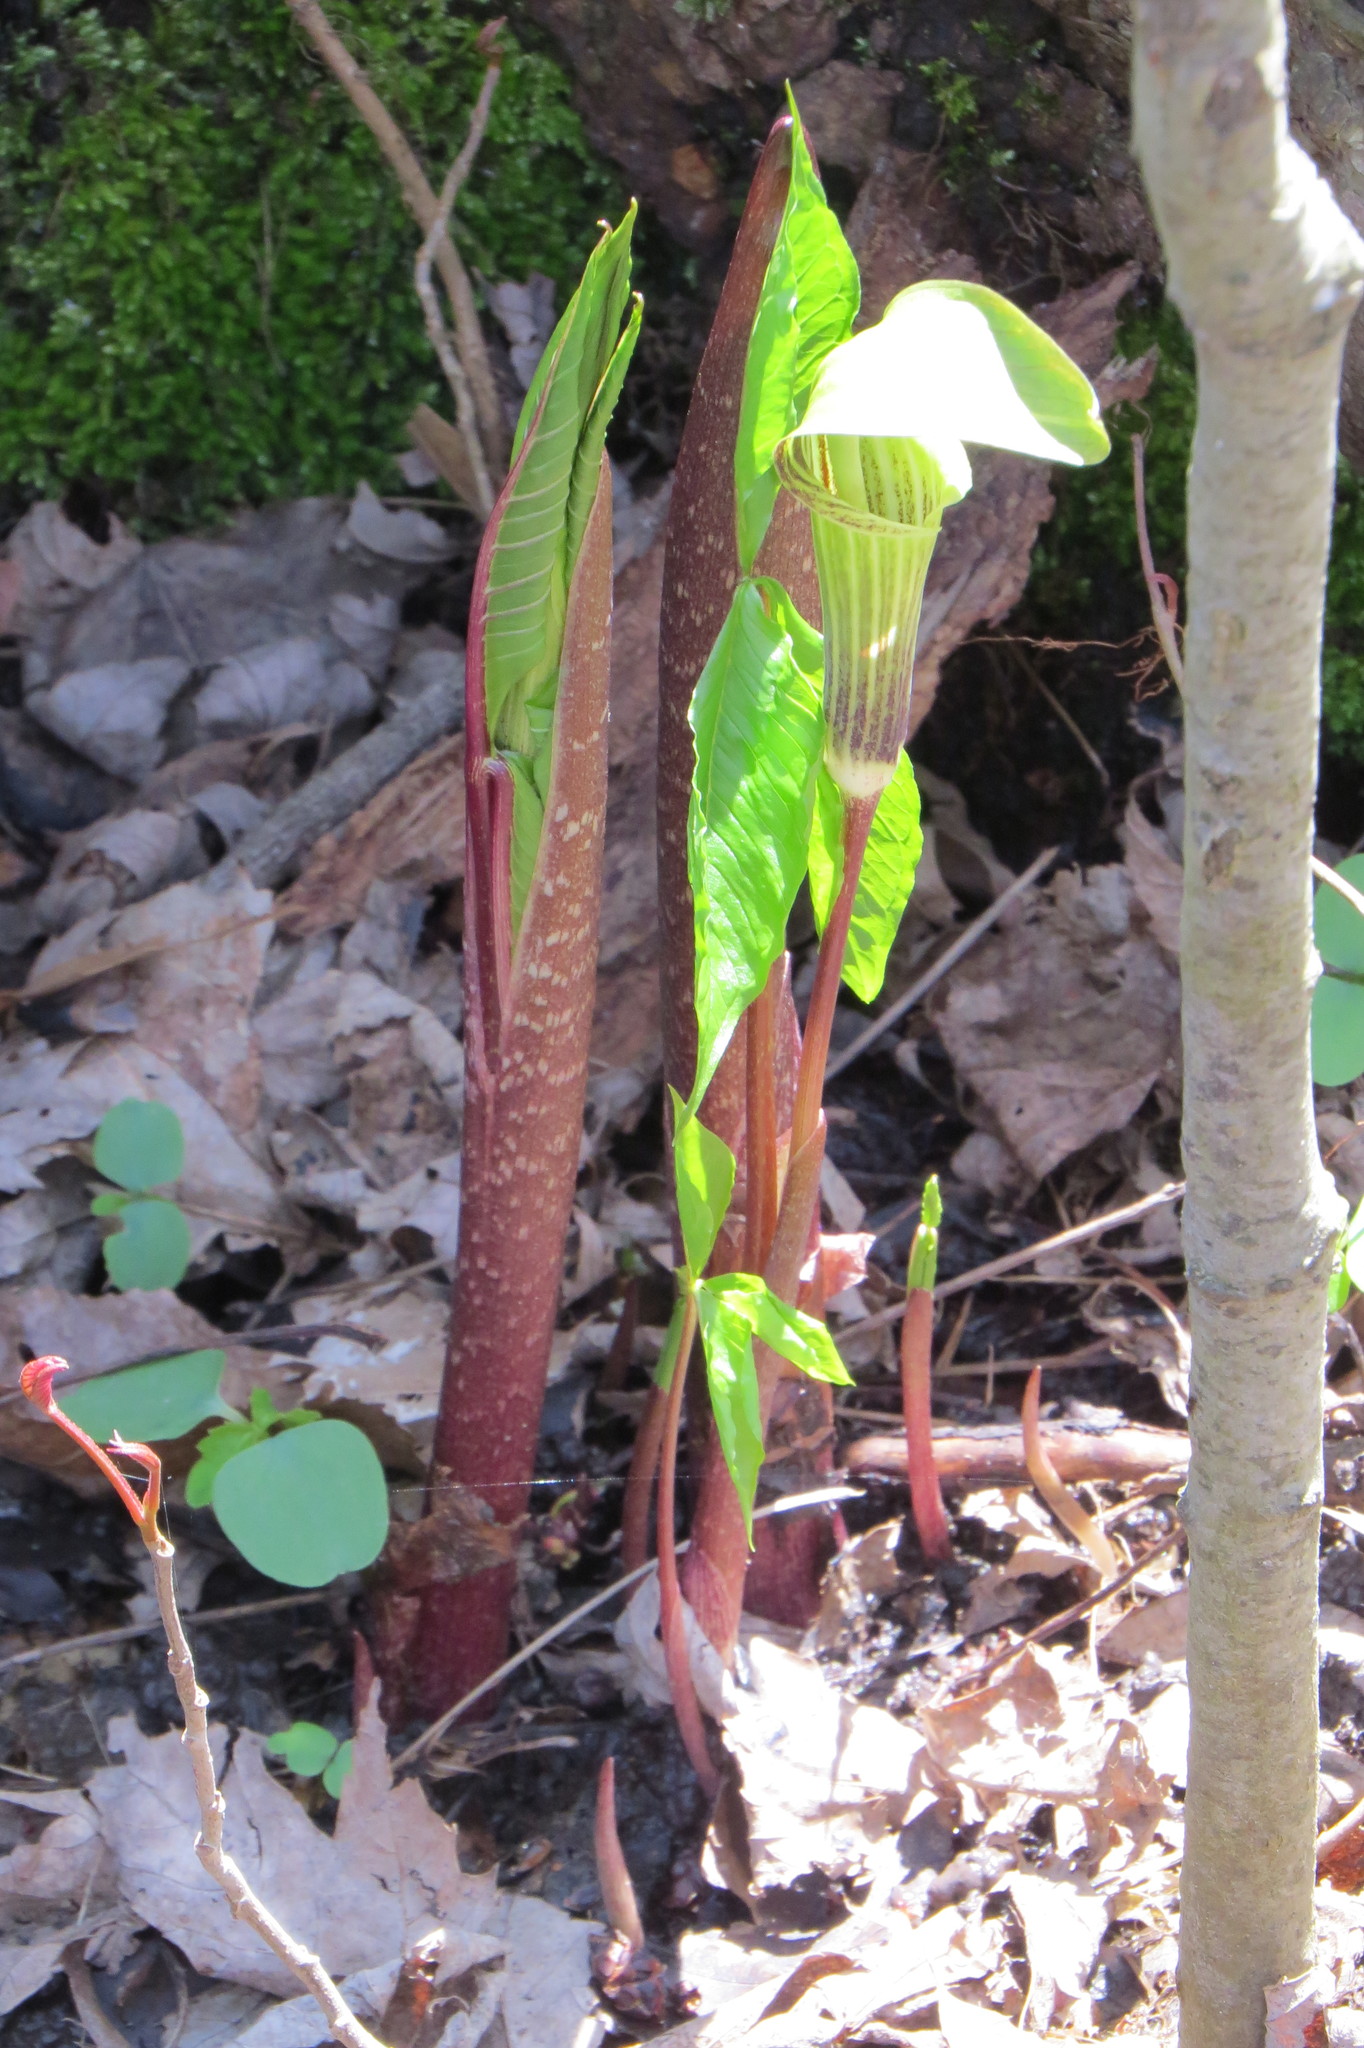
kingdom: Plantae
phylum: Tracheophyta
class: Liliopsida
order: Alismatales
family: Araceae
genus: Arisaema
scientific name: Arisaema triphyllum
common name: Jack-in-the-pulpit
